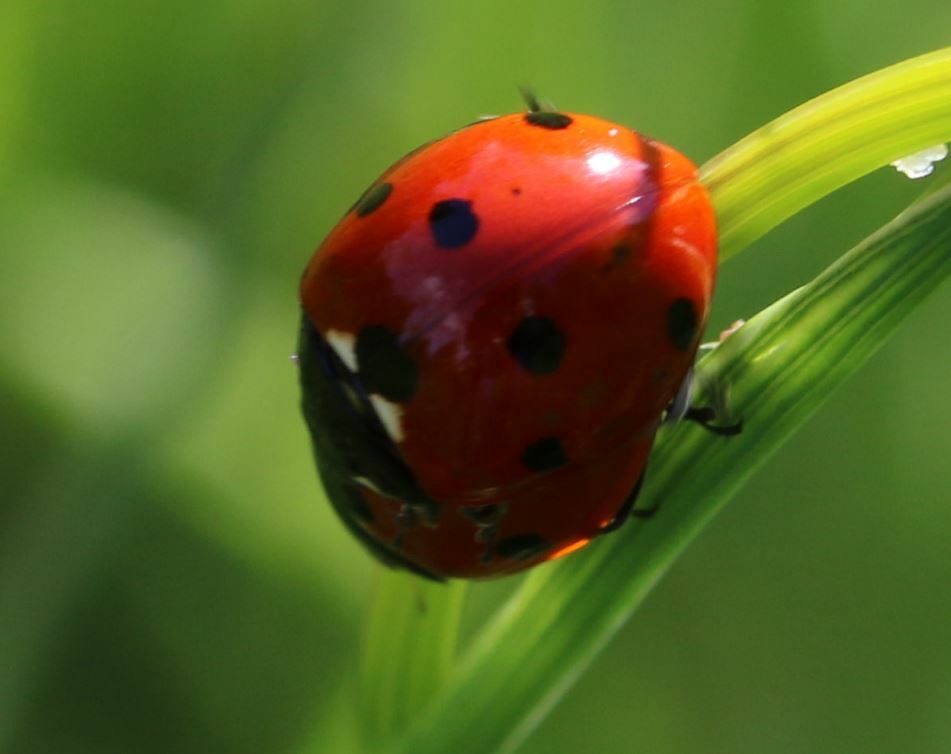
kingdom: Animalia
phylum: Arthropoda
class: Insecta
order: Coleoptera
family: Coccinellidae
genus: Coccinella
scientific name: Coccinella septempunctata
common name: Sevenspotted lady beetle
